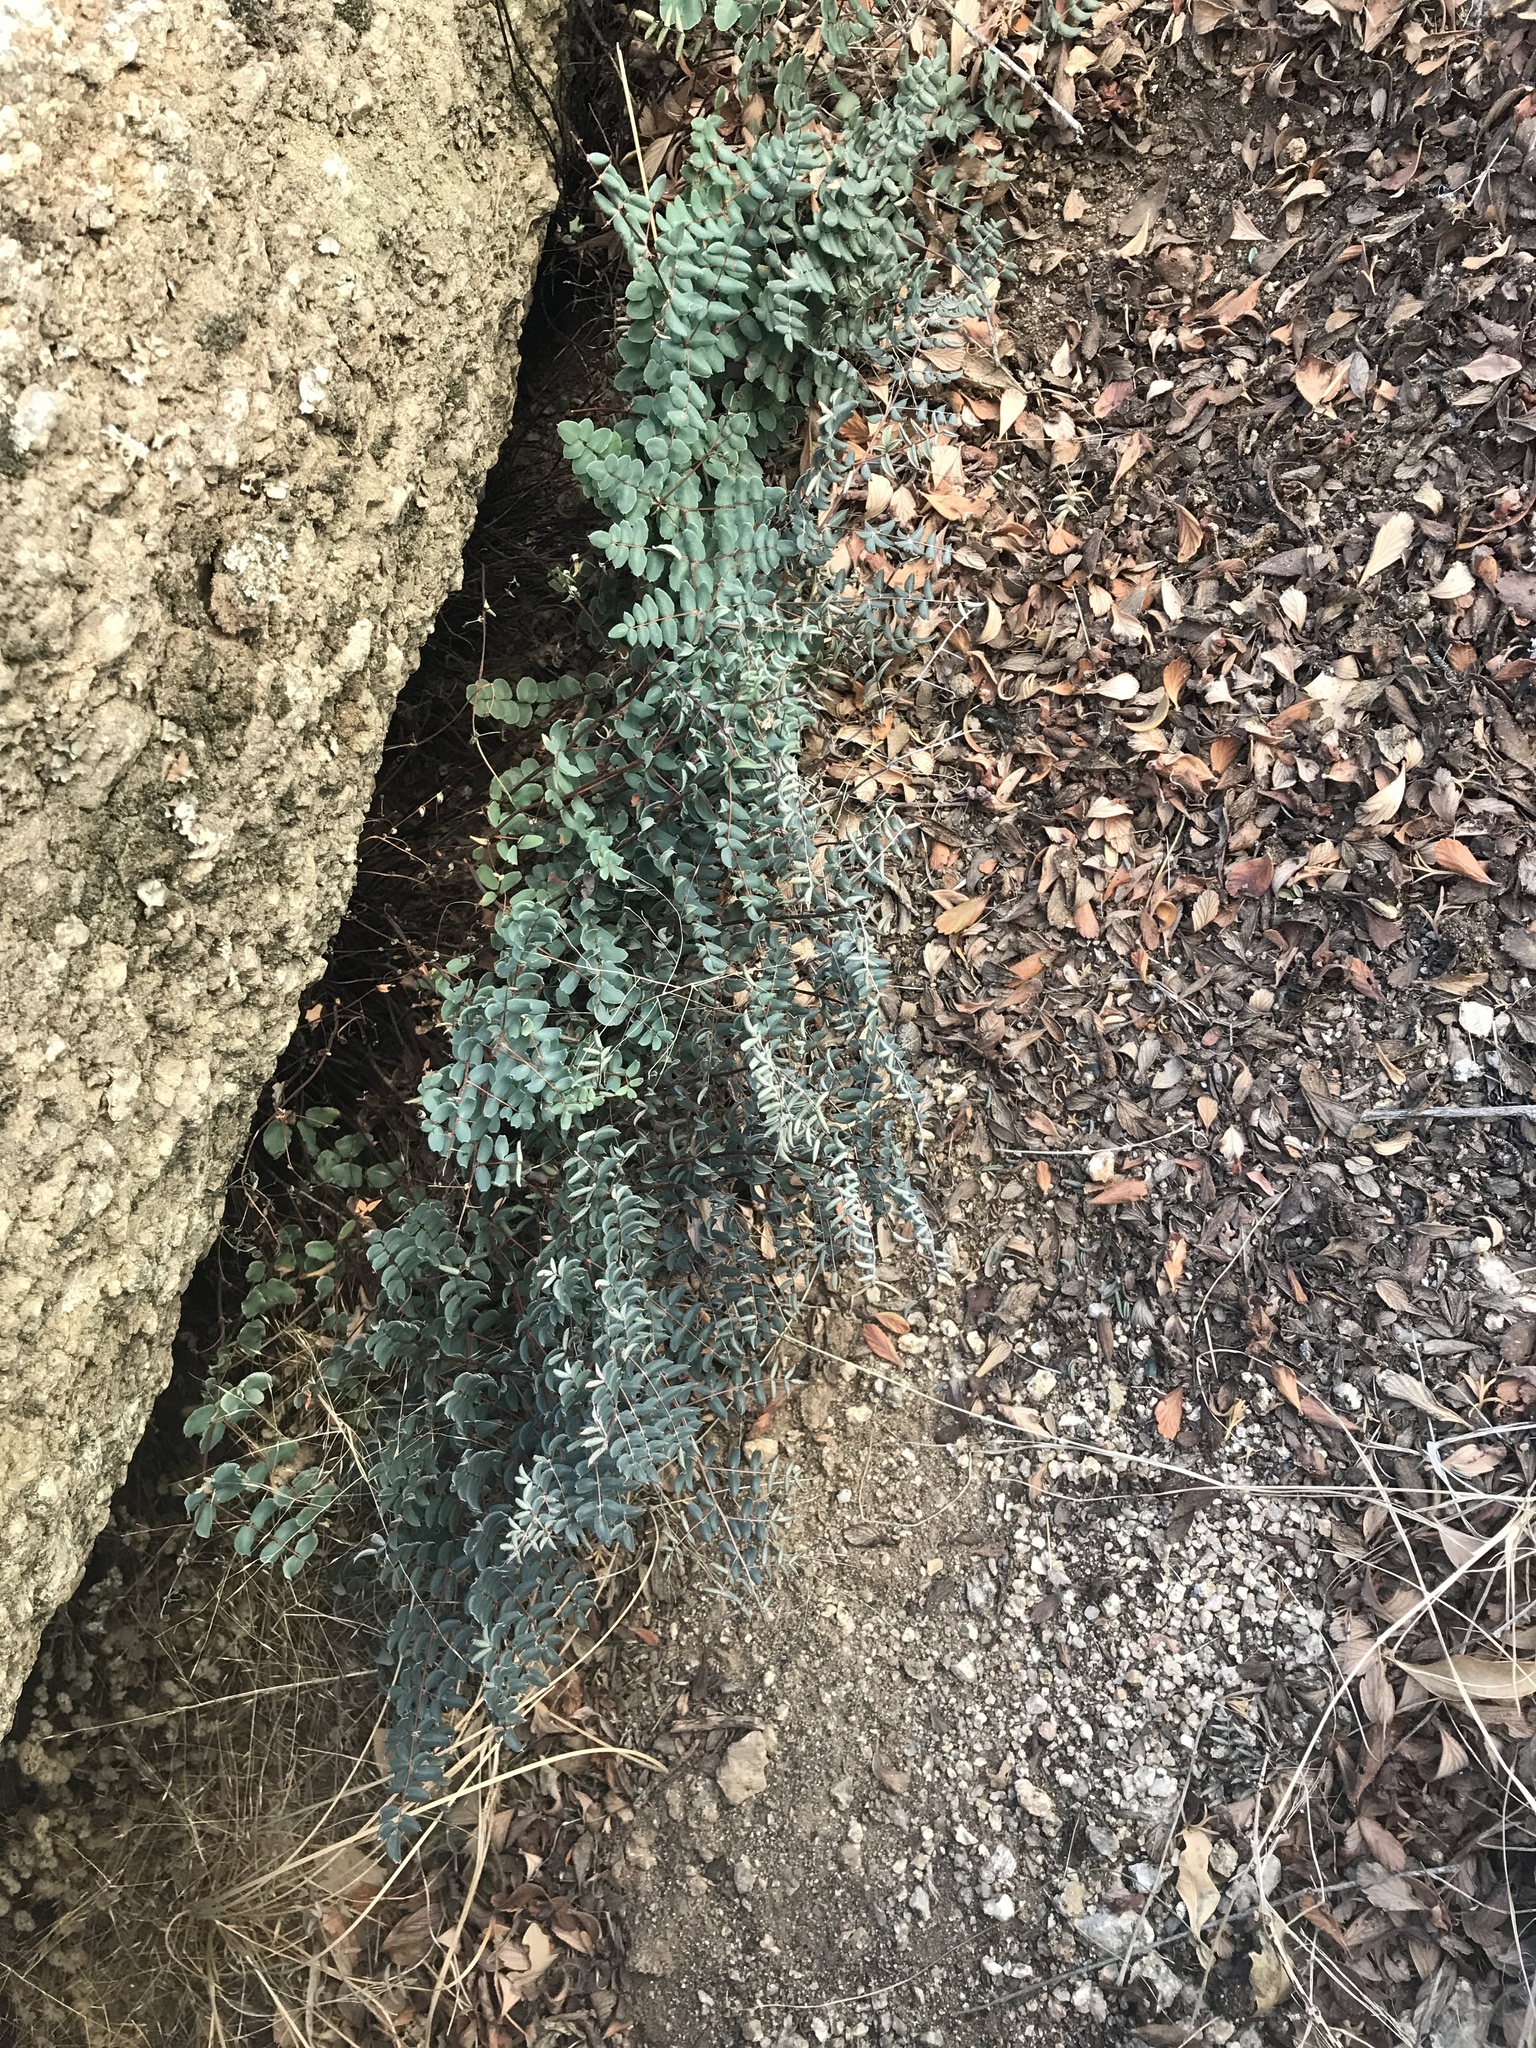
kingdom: Plantae
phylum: Tracheophyta
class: Polypodiopsida
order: Polypodiales
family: Pteridaceae
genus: Pellaea
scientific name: Pellaea truncata
